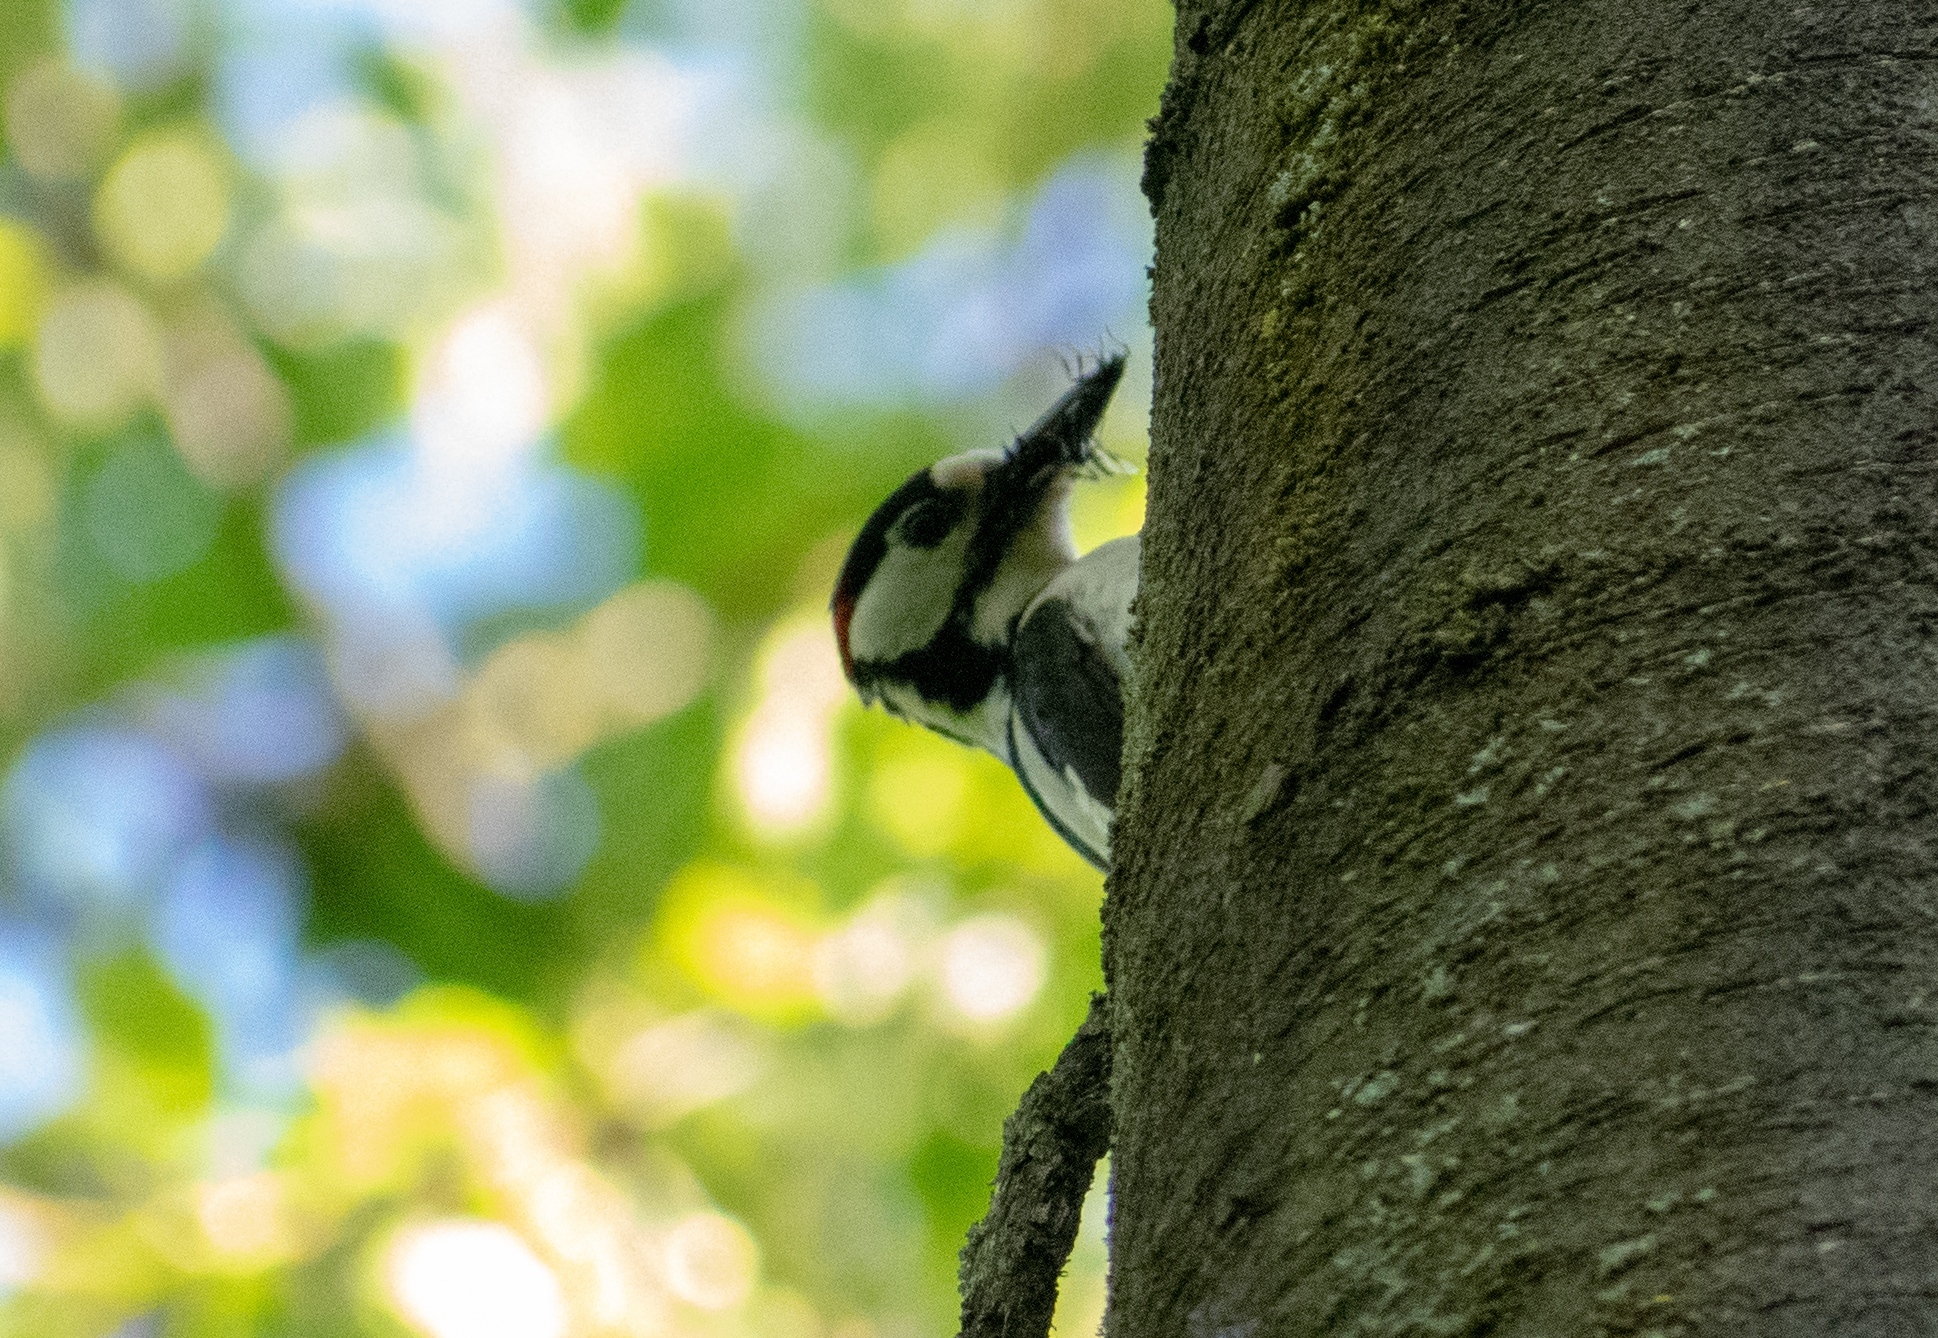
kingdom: Animalia
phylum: Chordata
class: Aves
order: Piciformes
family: Picidae
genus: Dendrocopos
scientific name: Dendrocopos major
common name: Great spotted woodpecker
